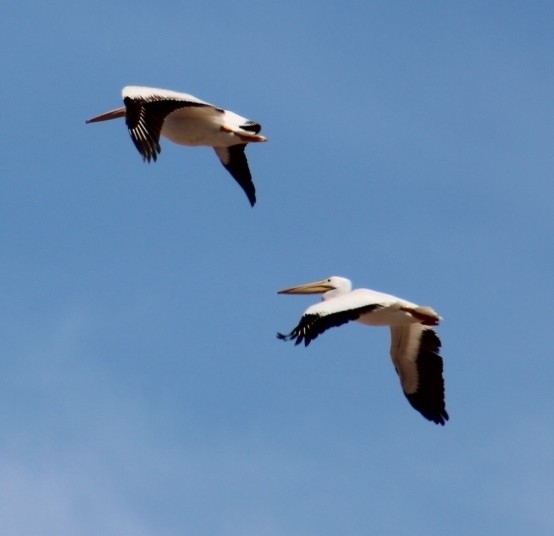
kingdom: Animalia
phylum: Chordata
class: Aves
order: Pelecaniformes
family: Pelecanidae
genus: Pelecanus
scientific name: Pelecanus erythrorhynchos
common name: American white pelican
